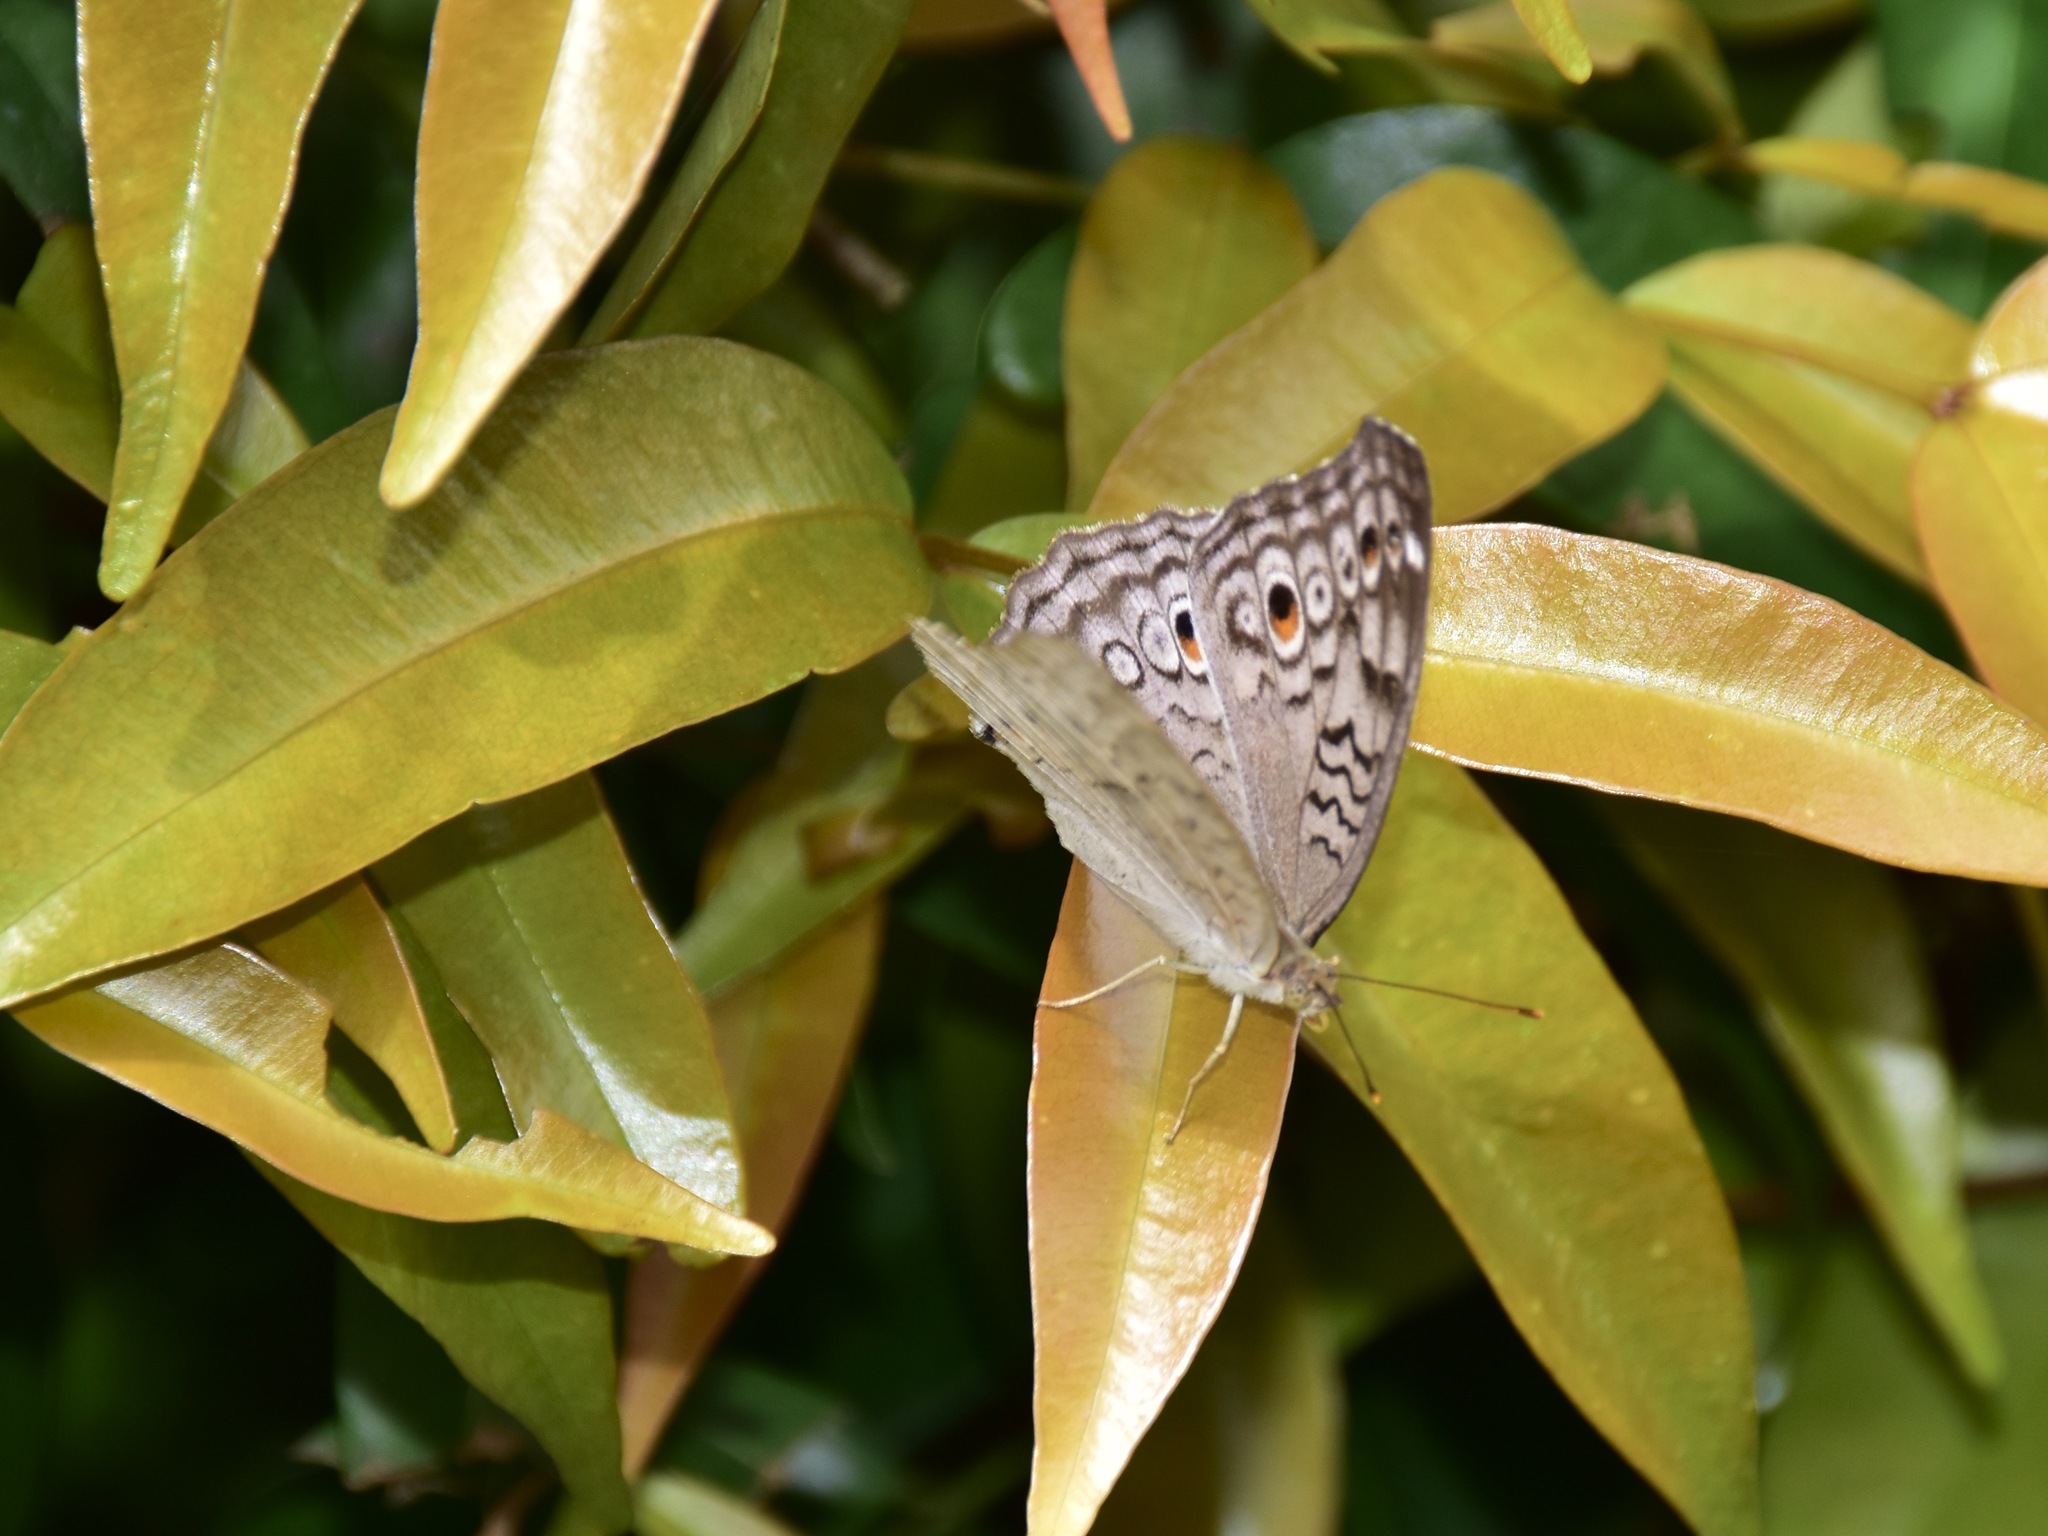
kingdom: Animalia
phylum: Arthropoda
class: Insecta
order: Lepidoptera
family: Nymphalidae
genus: Junonia
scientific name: Junonia atlites
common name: Grey pansy
